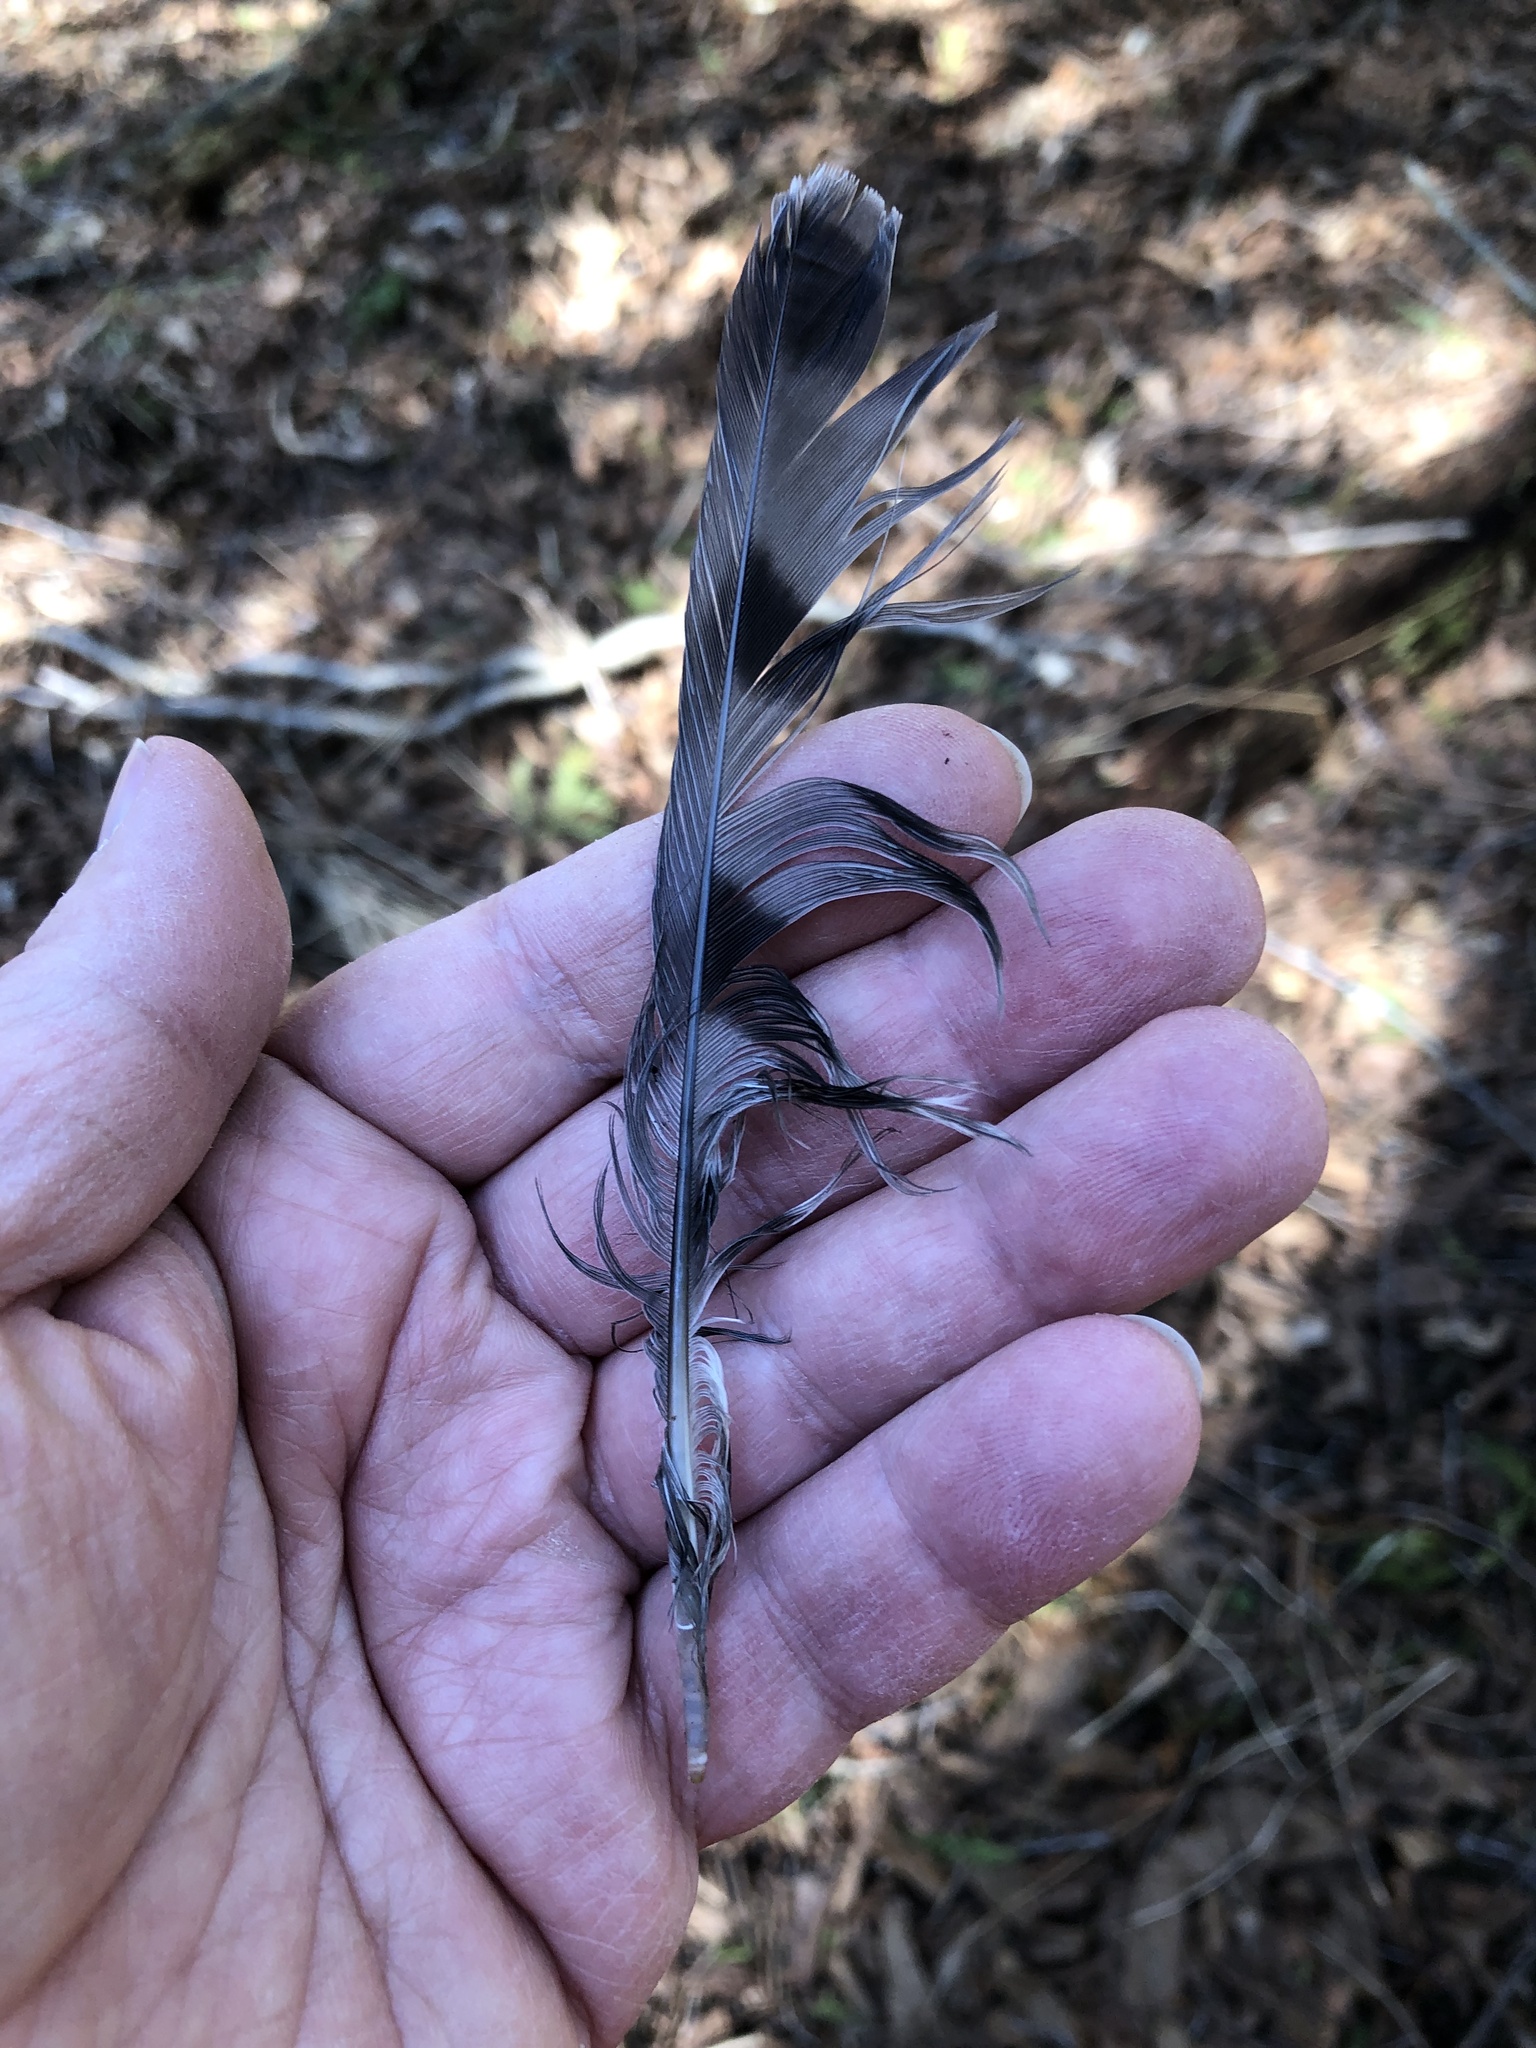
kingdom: Animalia
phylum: Chordata
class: Aves
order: Accipitriformes
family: Accipitridae
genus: Accipiter
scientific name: Accipiter striatus
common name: Sharp-shinned hawk
